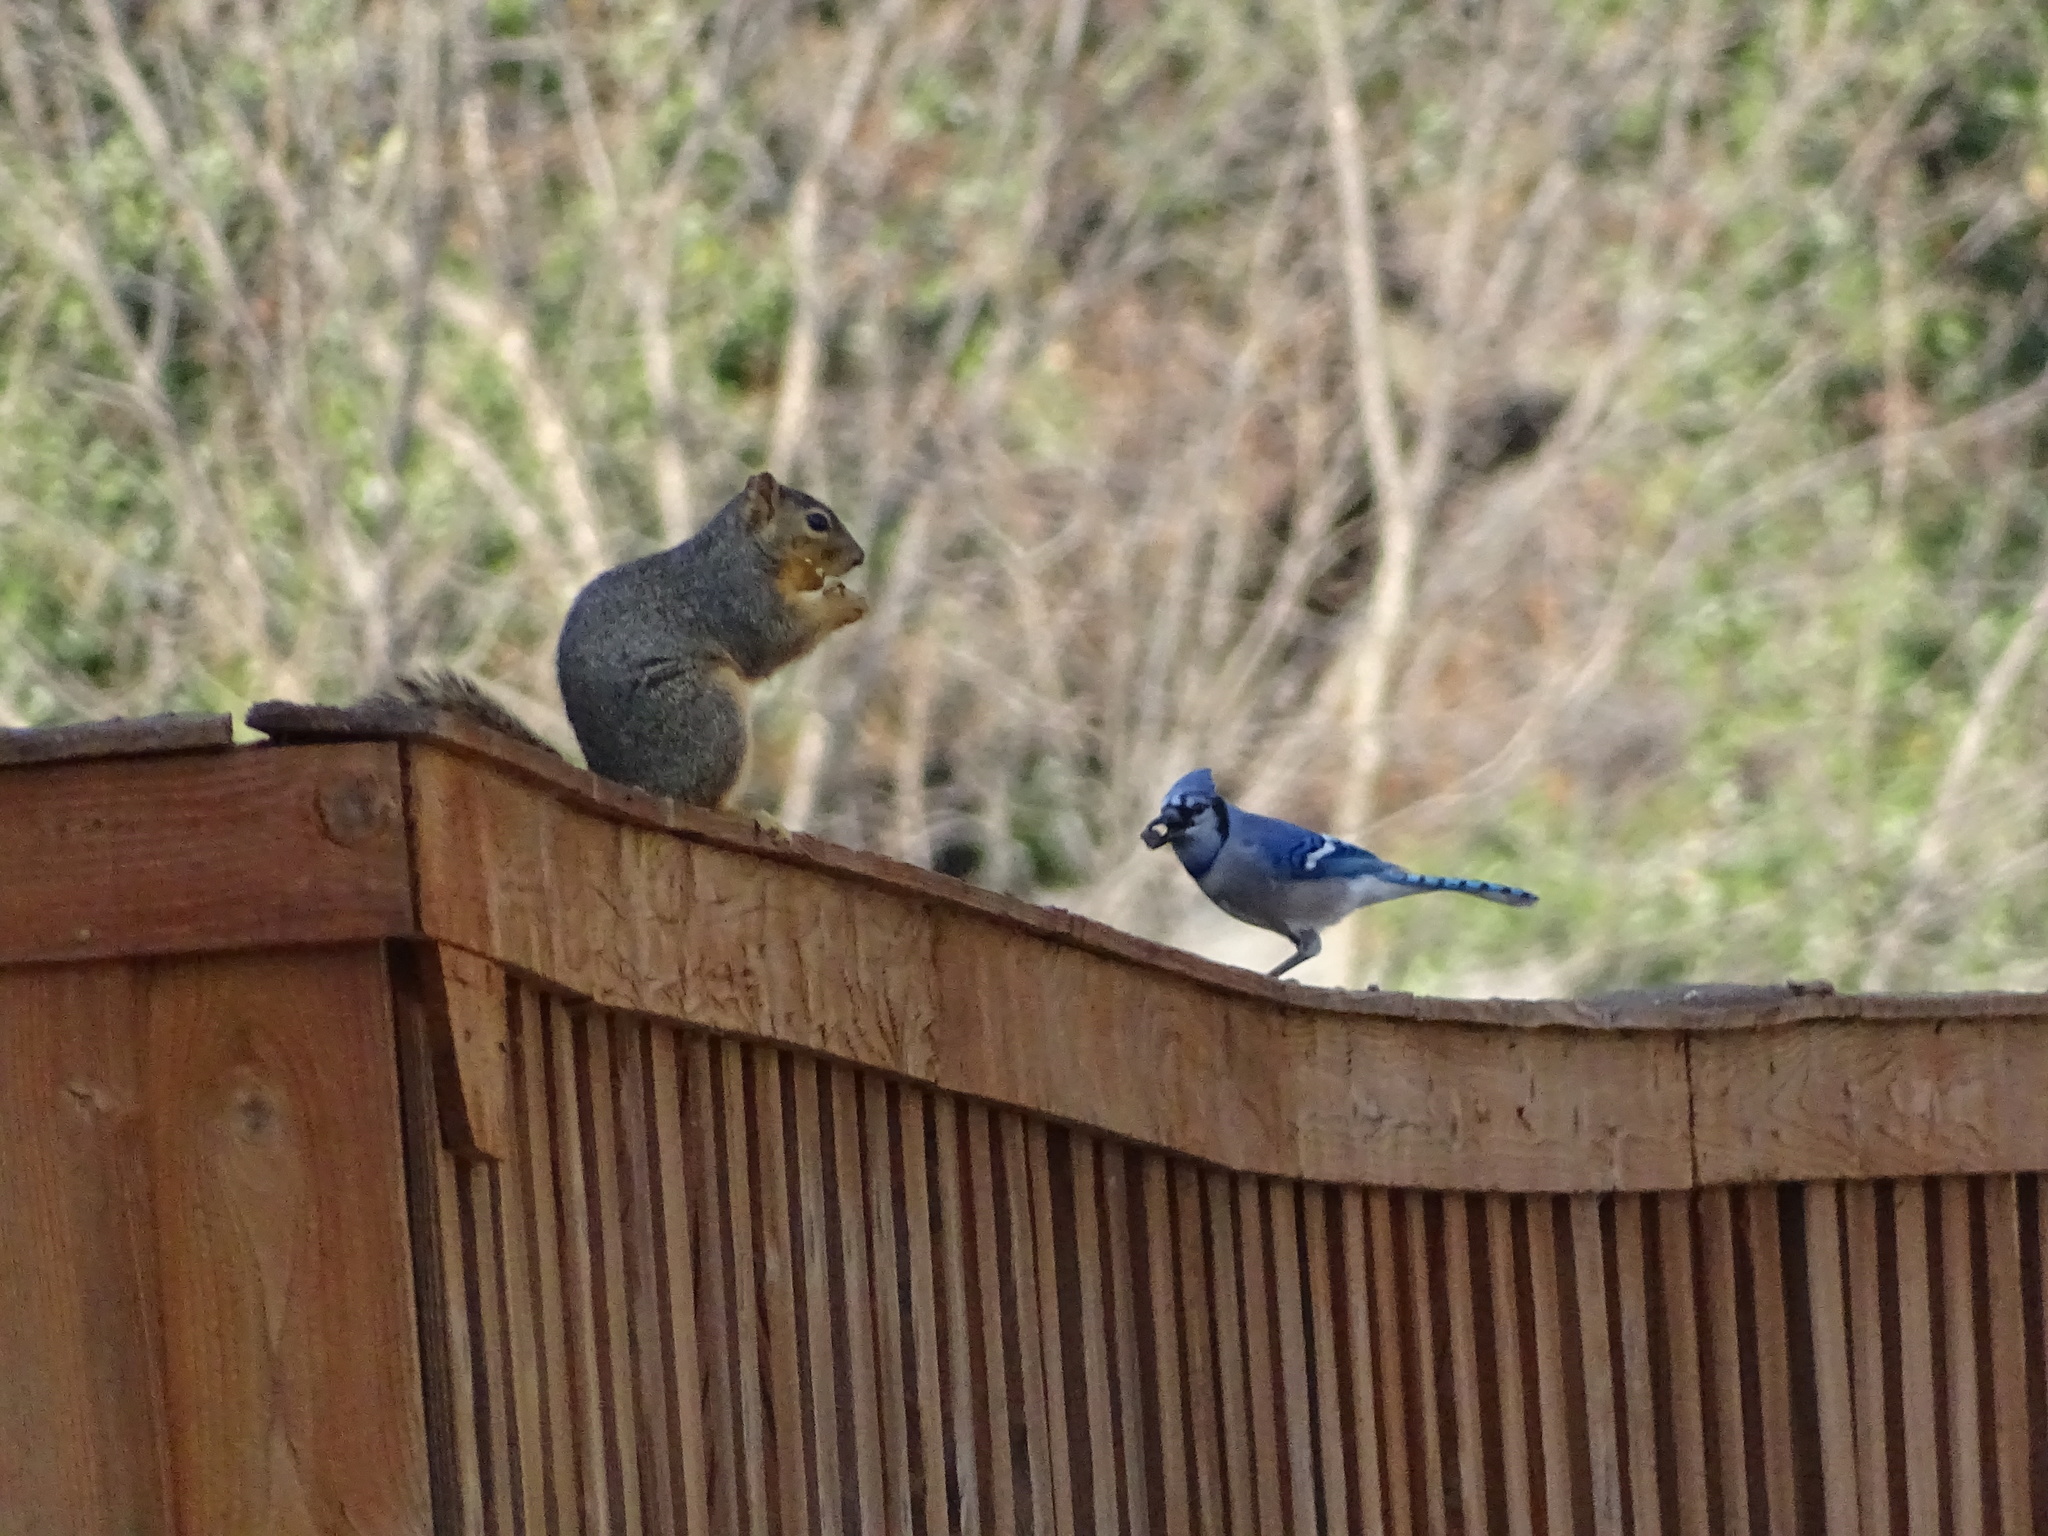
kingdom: Animalia
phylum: Chordata
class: Aves
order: Passeriformes
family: Corvidae
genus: Cyanocitta
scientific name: Cyanocitta cristata
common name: Blue jay
